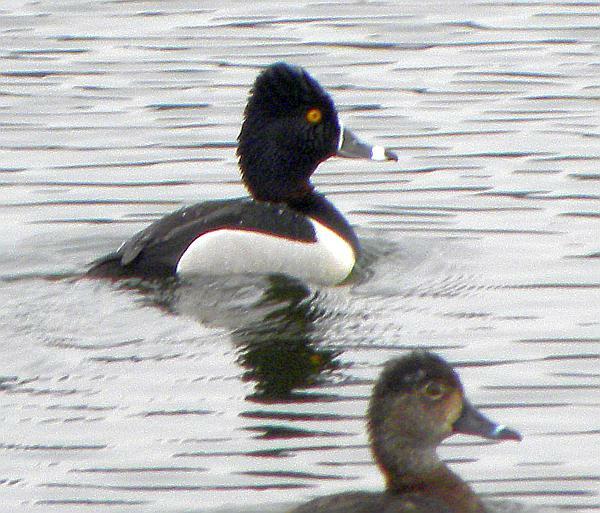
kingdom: Animalia
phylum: Chordata
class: Aves
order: Anseriformes
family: Anatidae
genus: Aythya
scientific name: Aythya collaris
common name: Ring-necked duck
